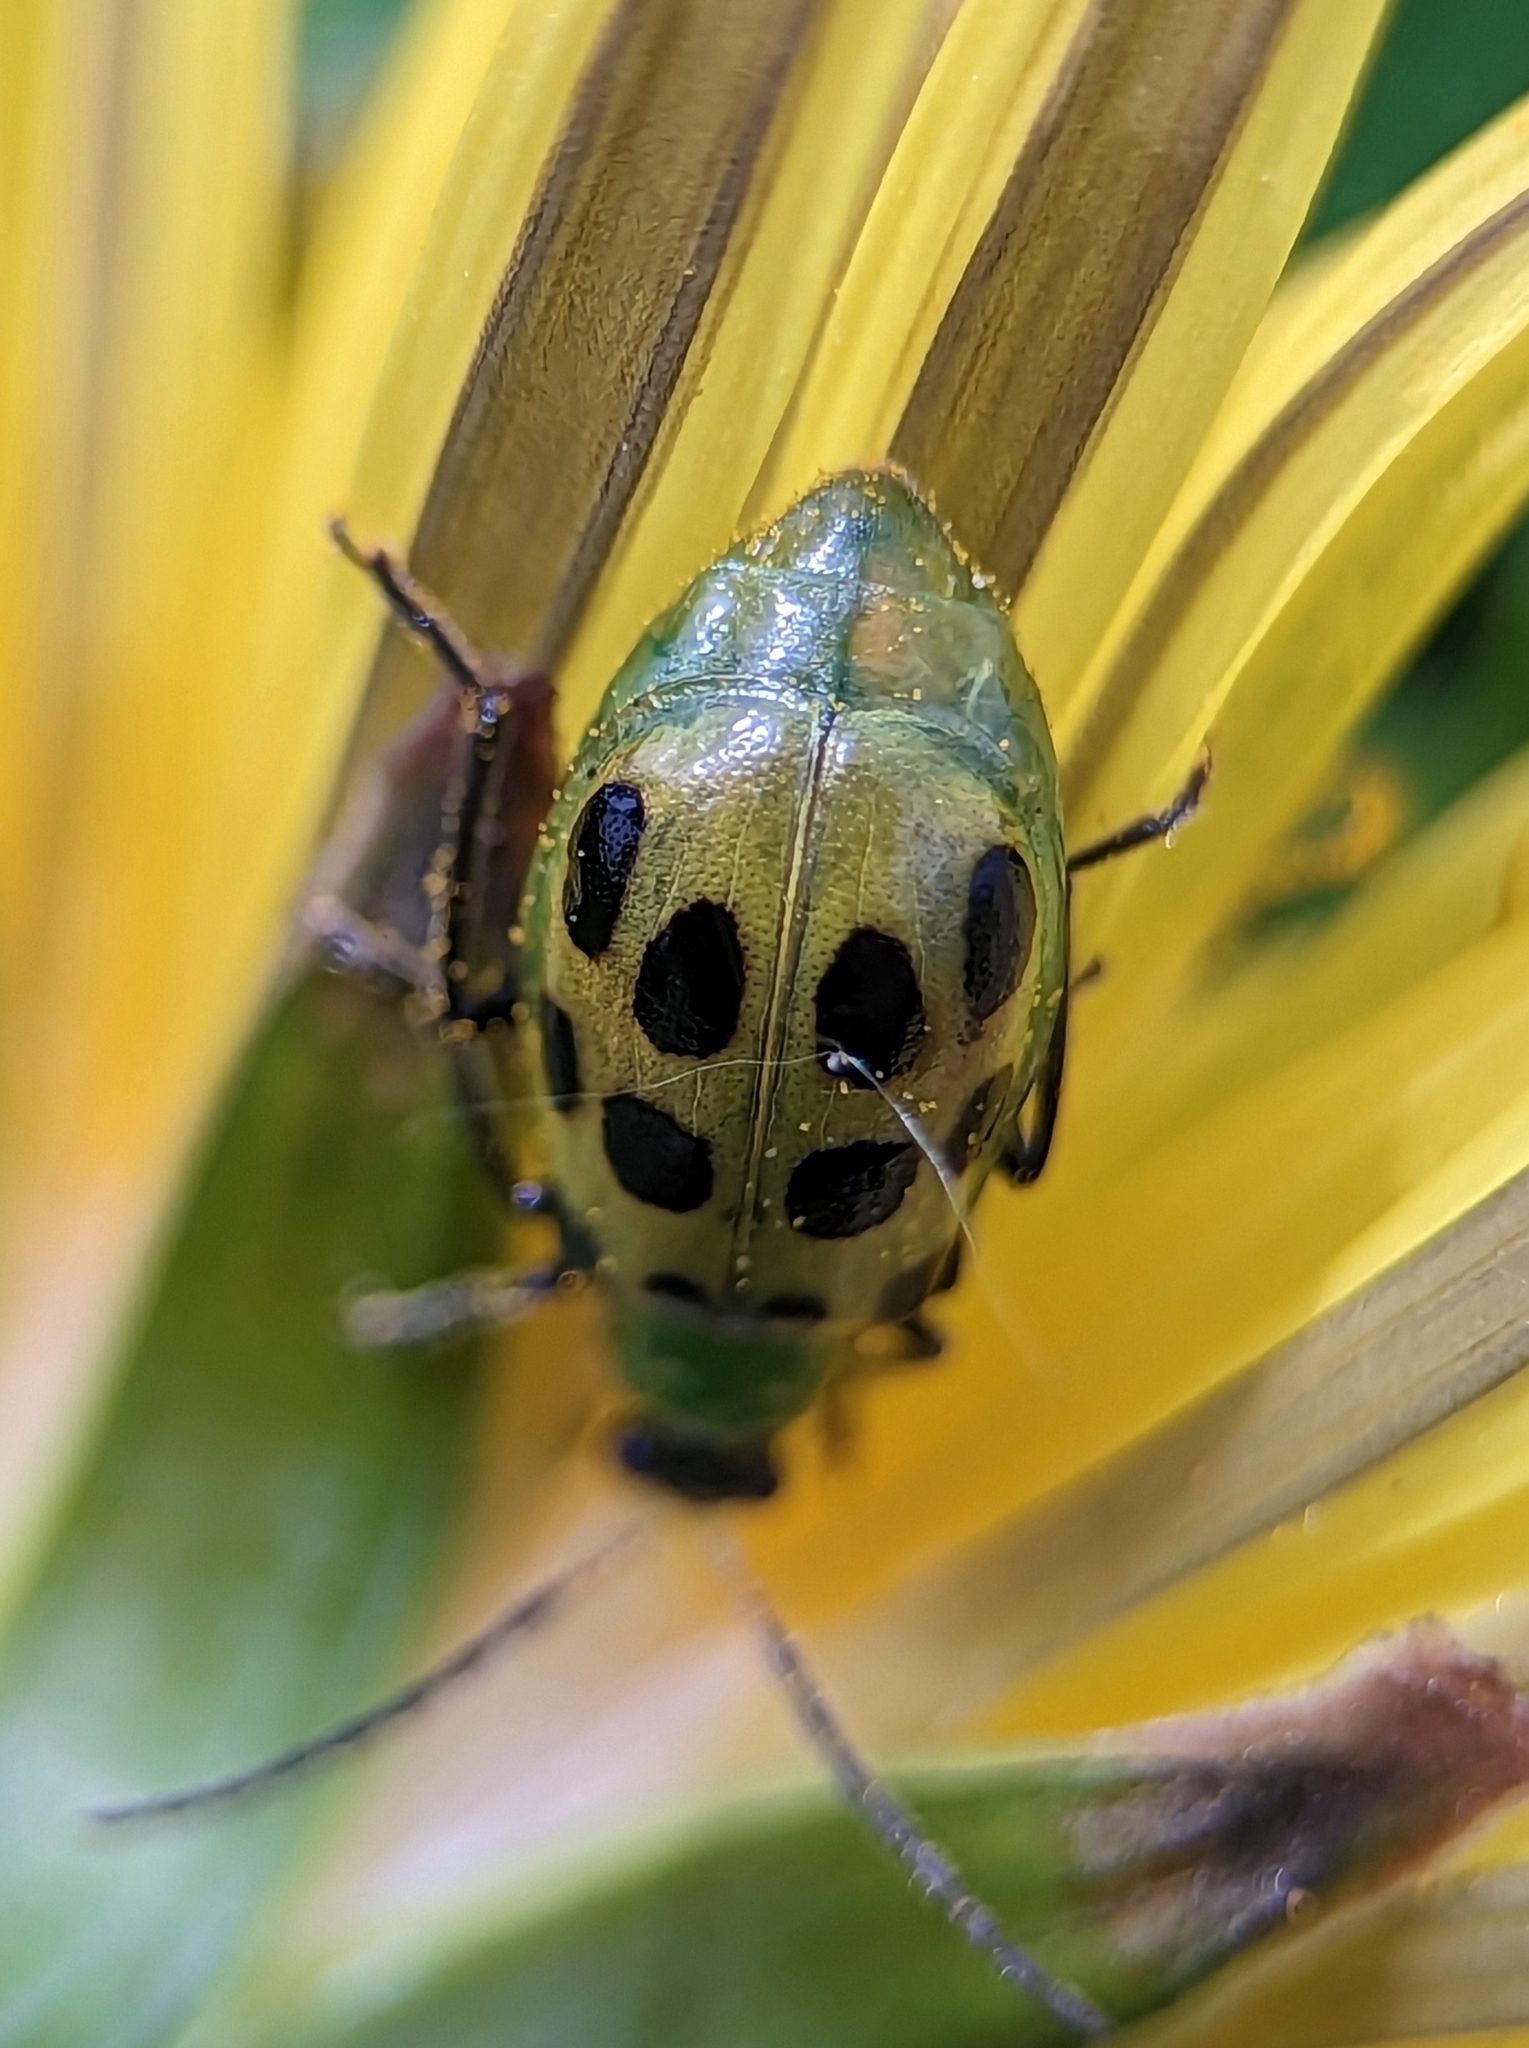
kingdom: Animalia
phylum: Arthropoda
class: Insecta
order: Coleoptera
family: Chrysomelidae
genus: Diabrotica
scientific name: Diabrotica undecimpunctata
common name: Spotted cucumber beetle
